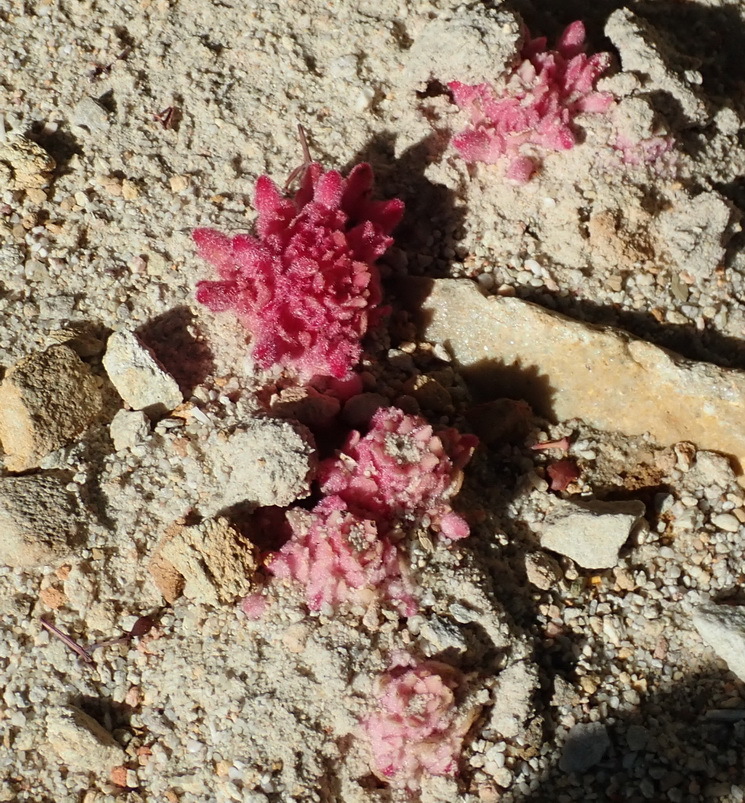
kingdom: Plantae
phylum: Tracheophyta
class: Magnoliopsida
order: Lamiales
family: Orobanchaceae
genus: Hyobanche
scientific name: Hyobanche sanguinea
